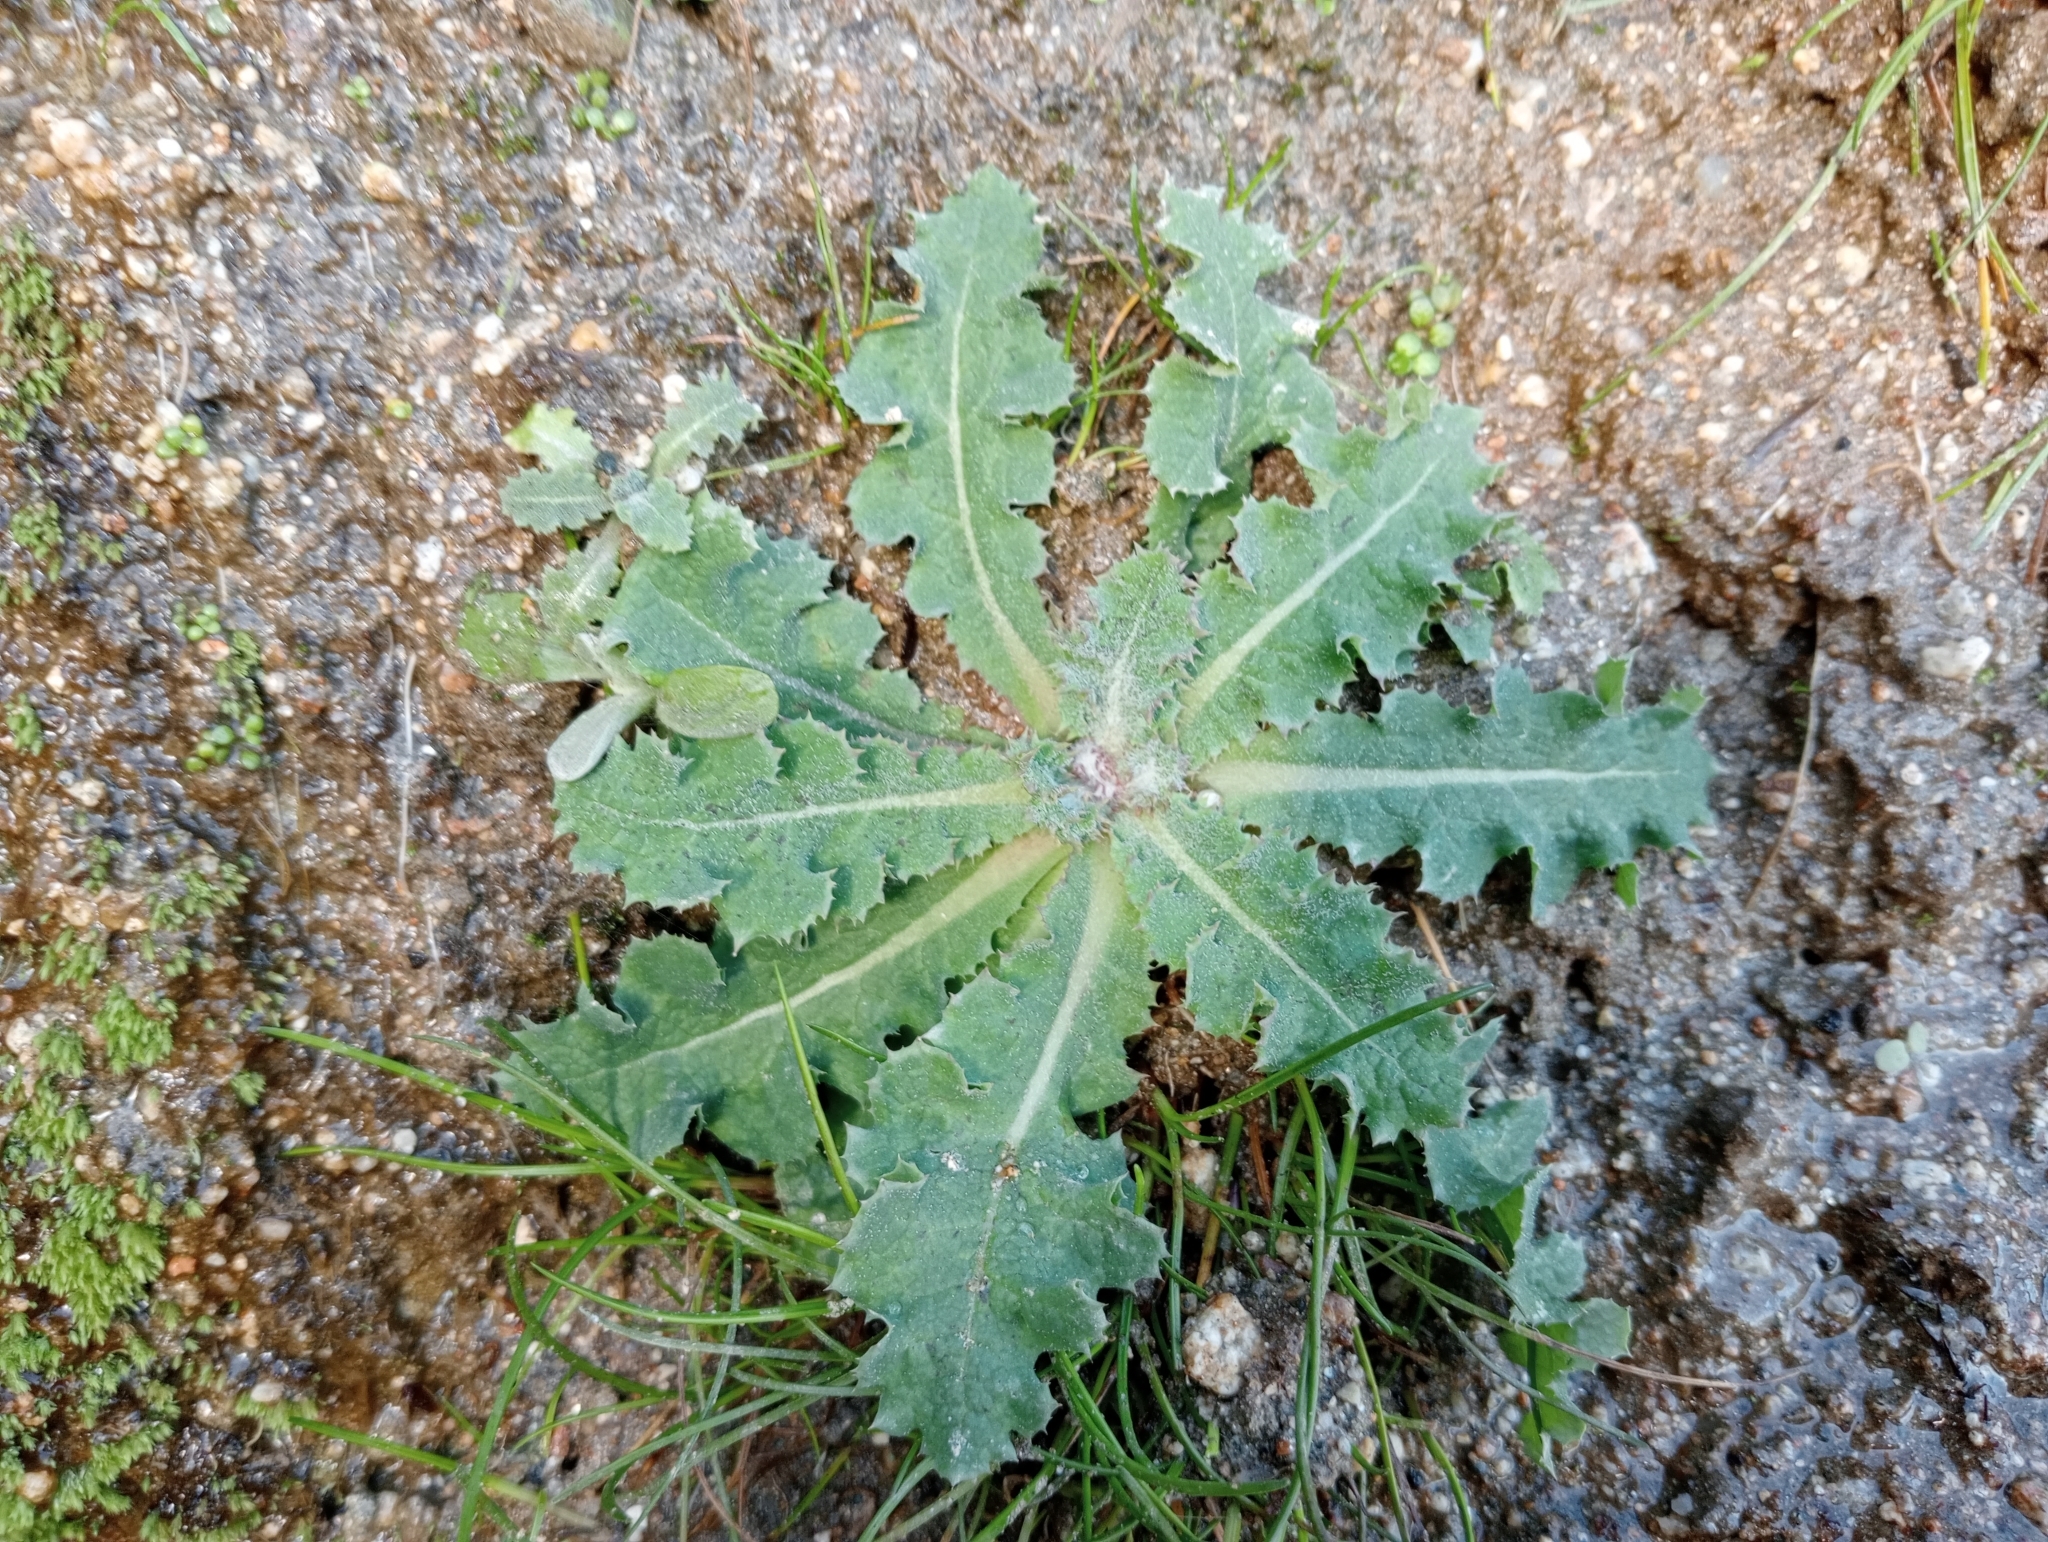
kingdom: Plantae
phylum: Tracheophyta
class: Magnoliopsida
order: Asterales
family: Asteraceae
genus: Sonchus
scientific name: Sonchus kirkii
